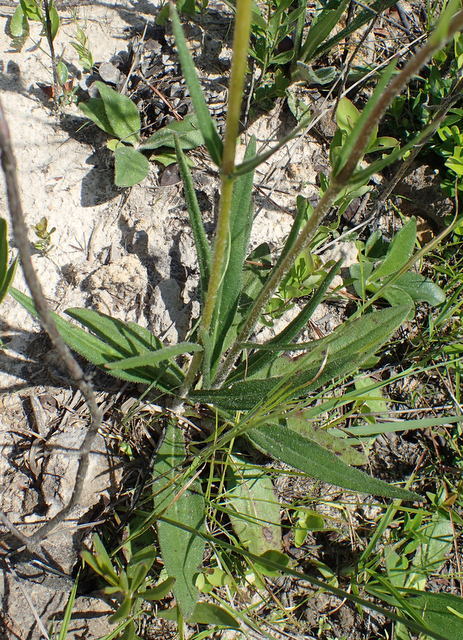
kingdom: Plantae
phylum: Tracheophyta
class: Magnoliopsida
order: Asterales
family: Asteraceae
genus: Helianthus
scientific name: Helianthus heterophyllus
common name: Wetland sunflower
